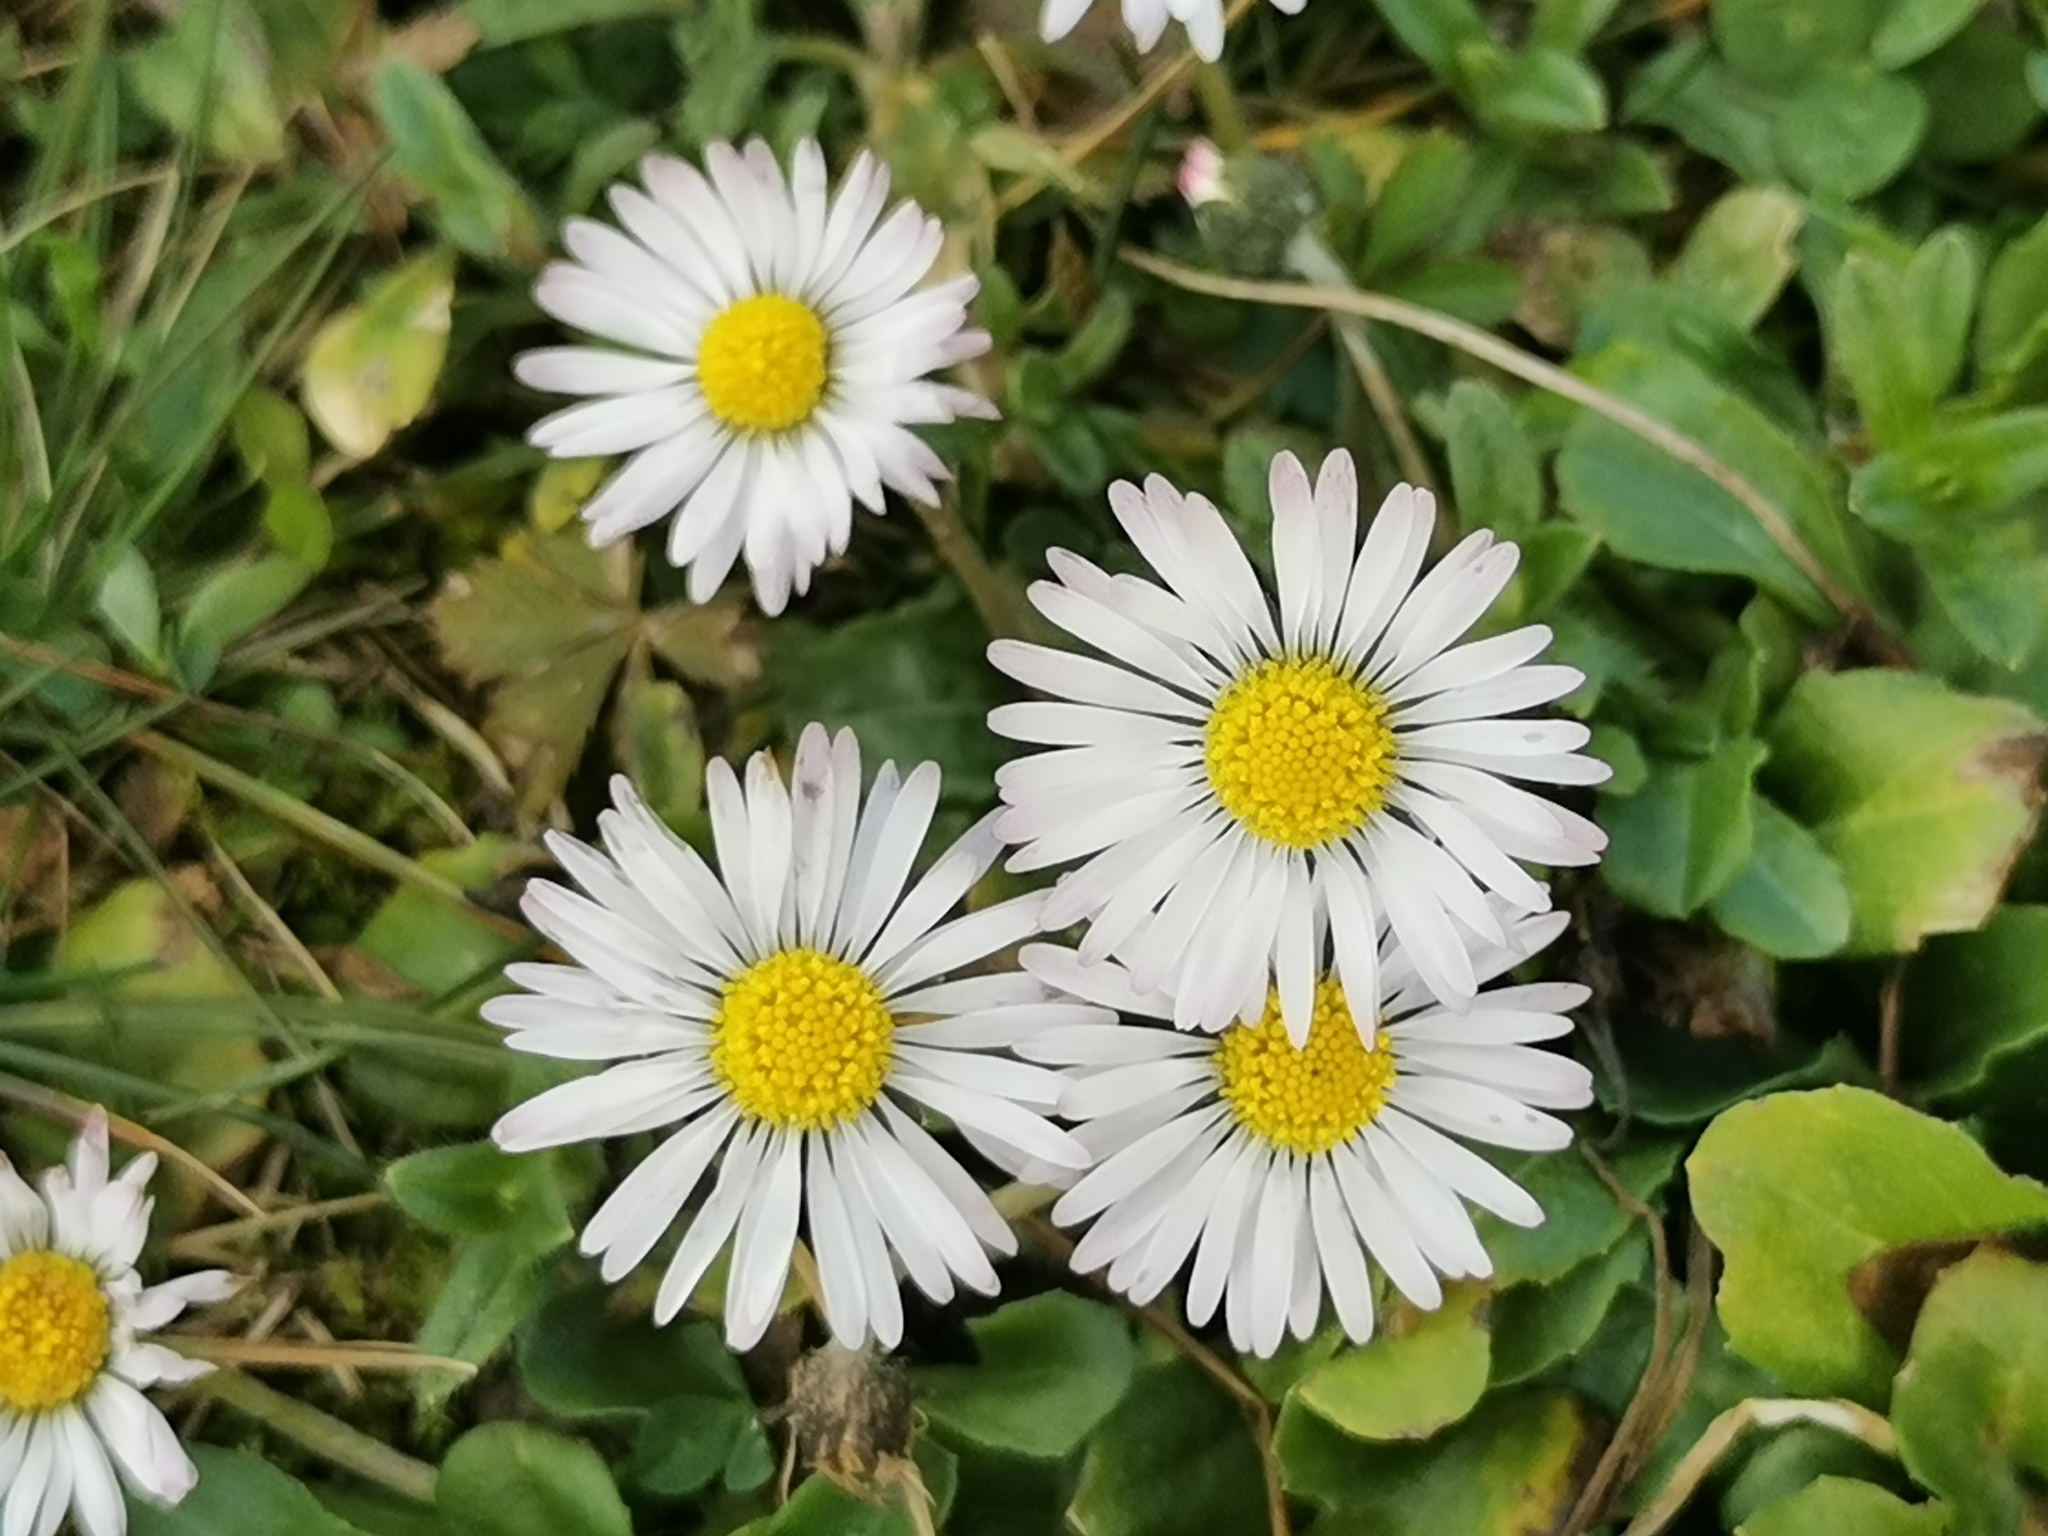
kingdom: Plantae
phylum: Tracheophyta
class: Magnoliopsida
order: Asterales
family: Asteraceae
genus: Bellis
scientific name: Bellis perennis
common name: Lawndaisy
